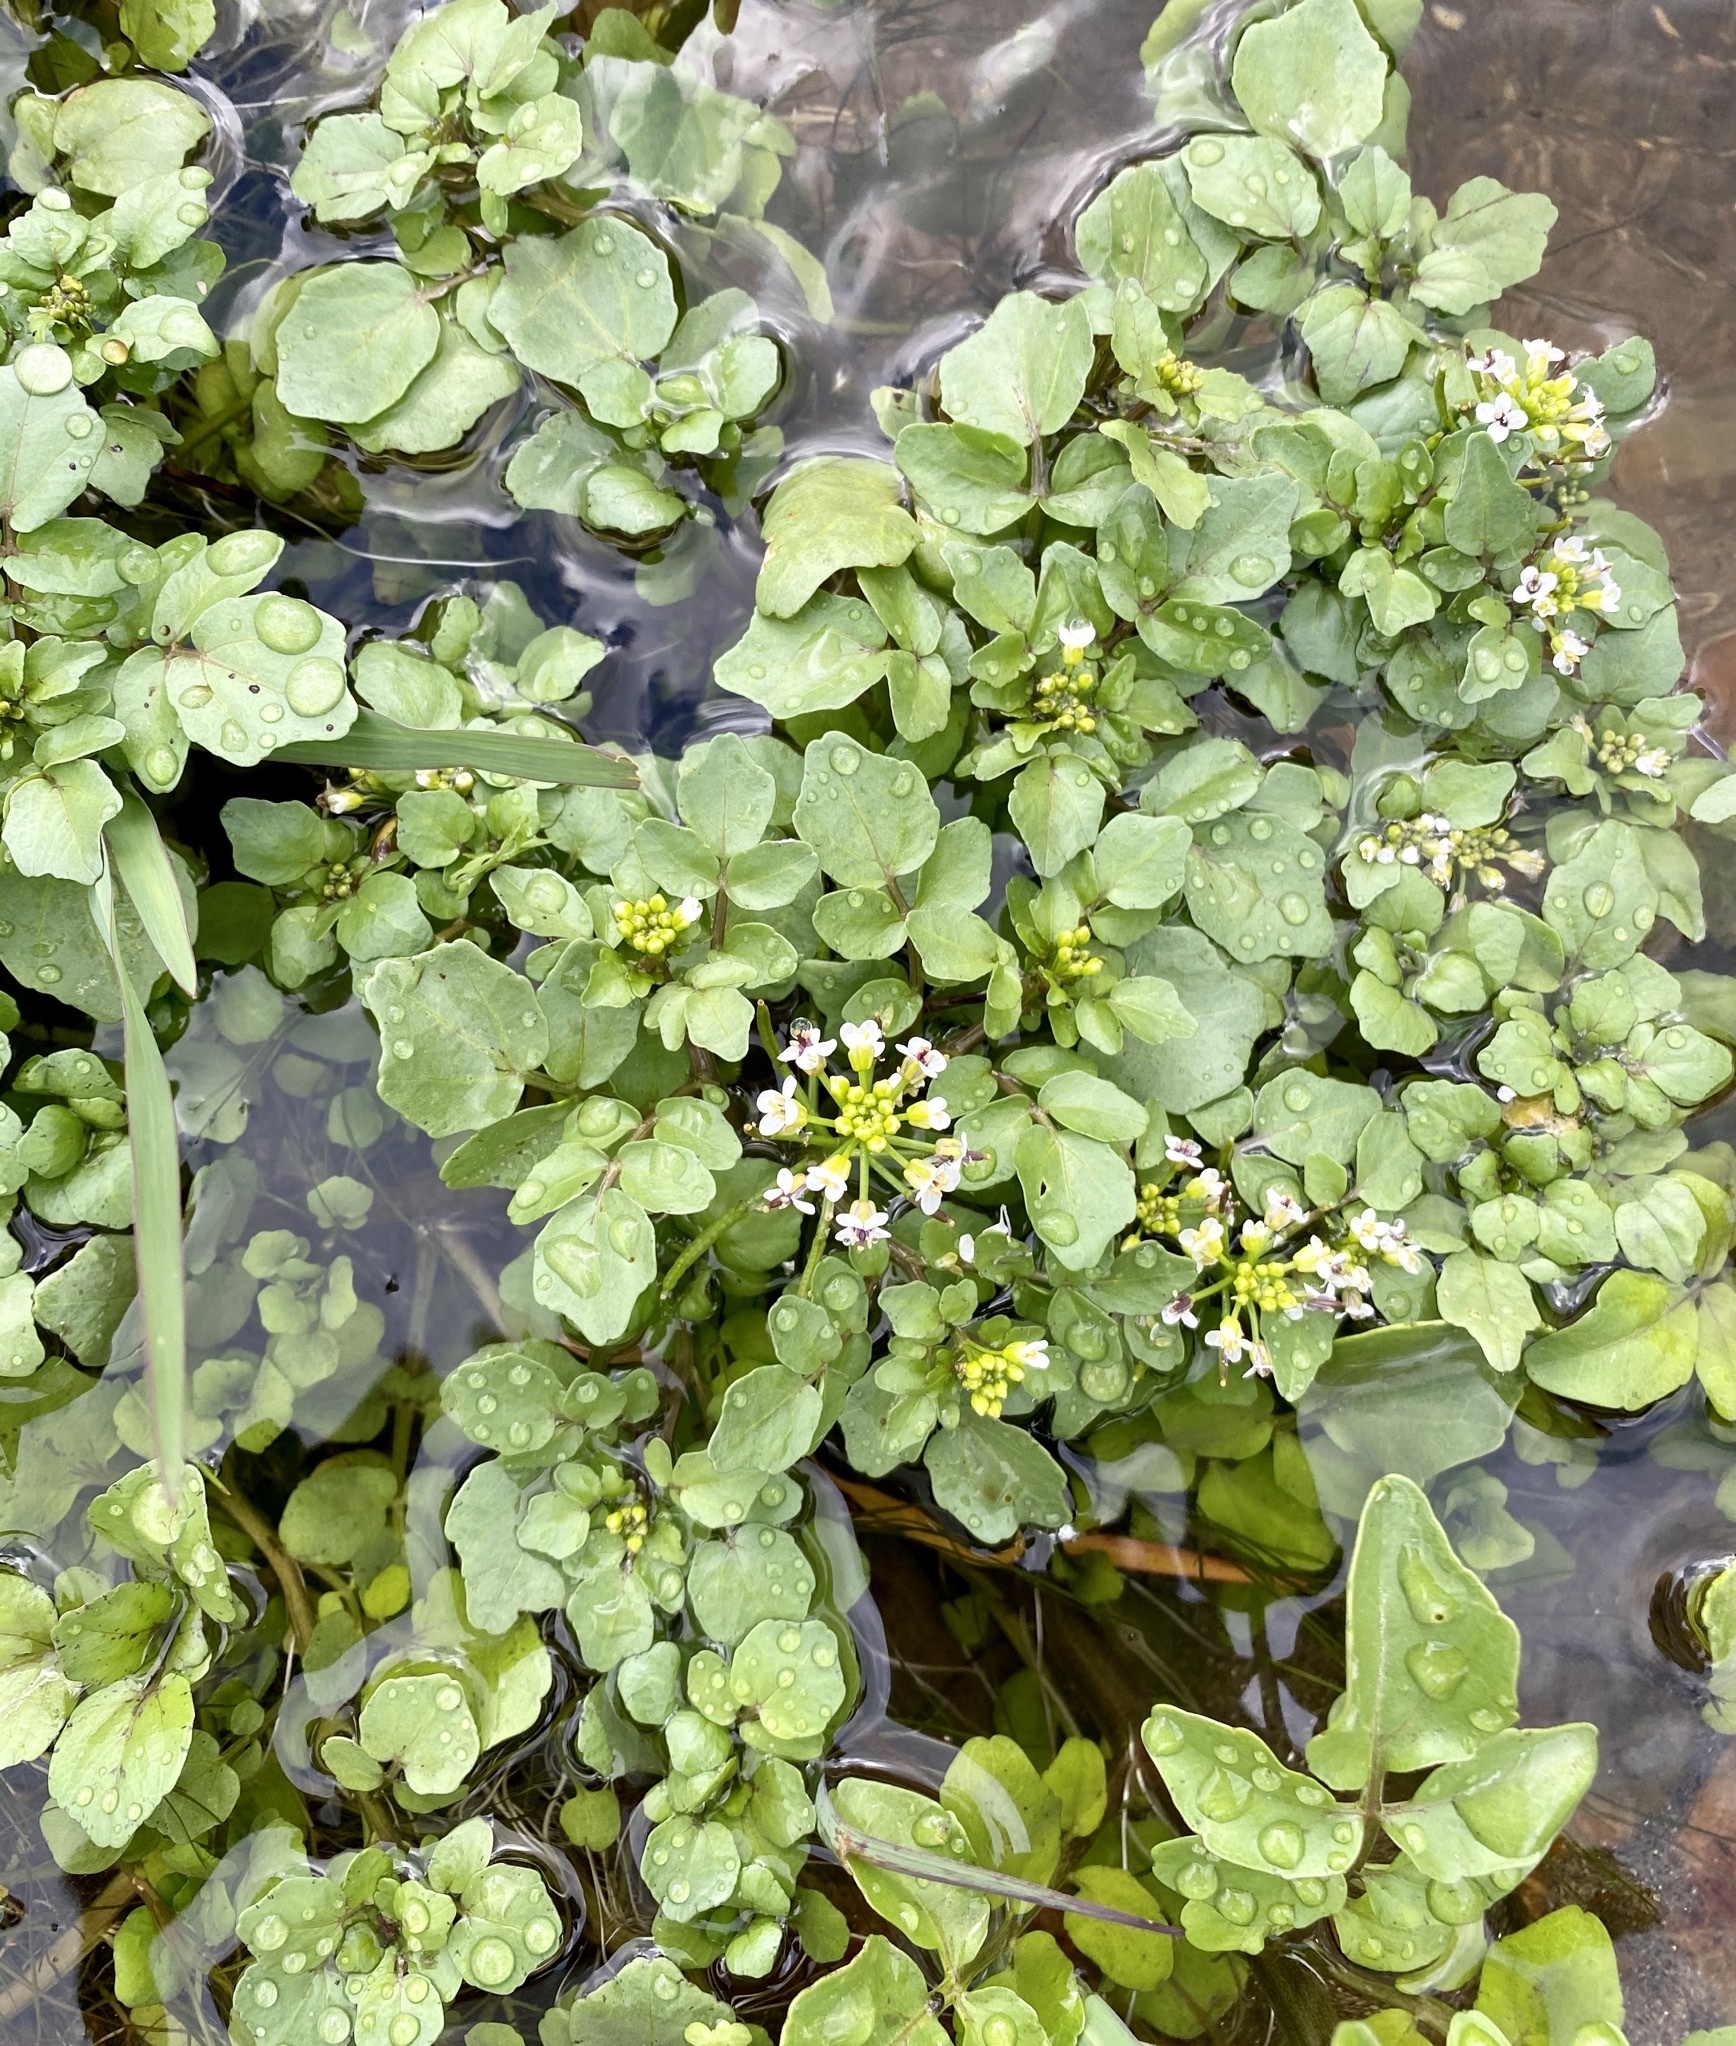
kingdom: Plantae
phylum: Tracheophyta
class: Magnoliopsida
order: Brassicales
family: Brassicaceae
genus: Nasturtium
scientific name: Nasturtium officinale
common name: Watercress
